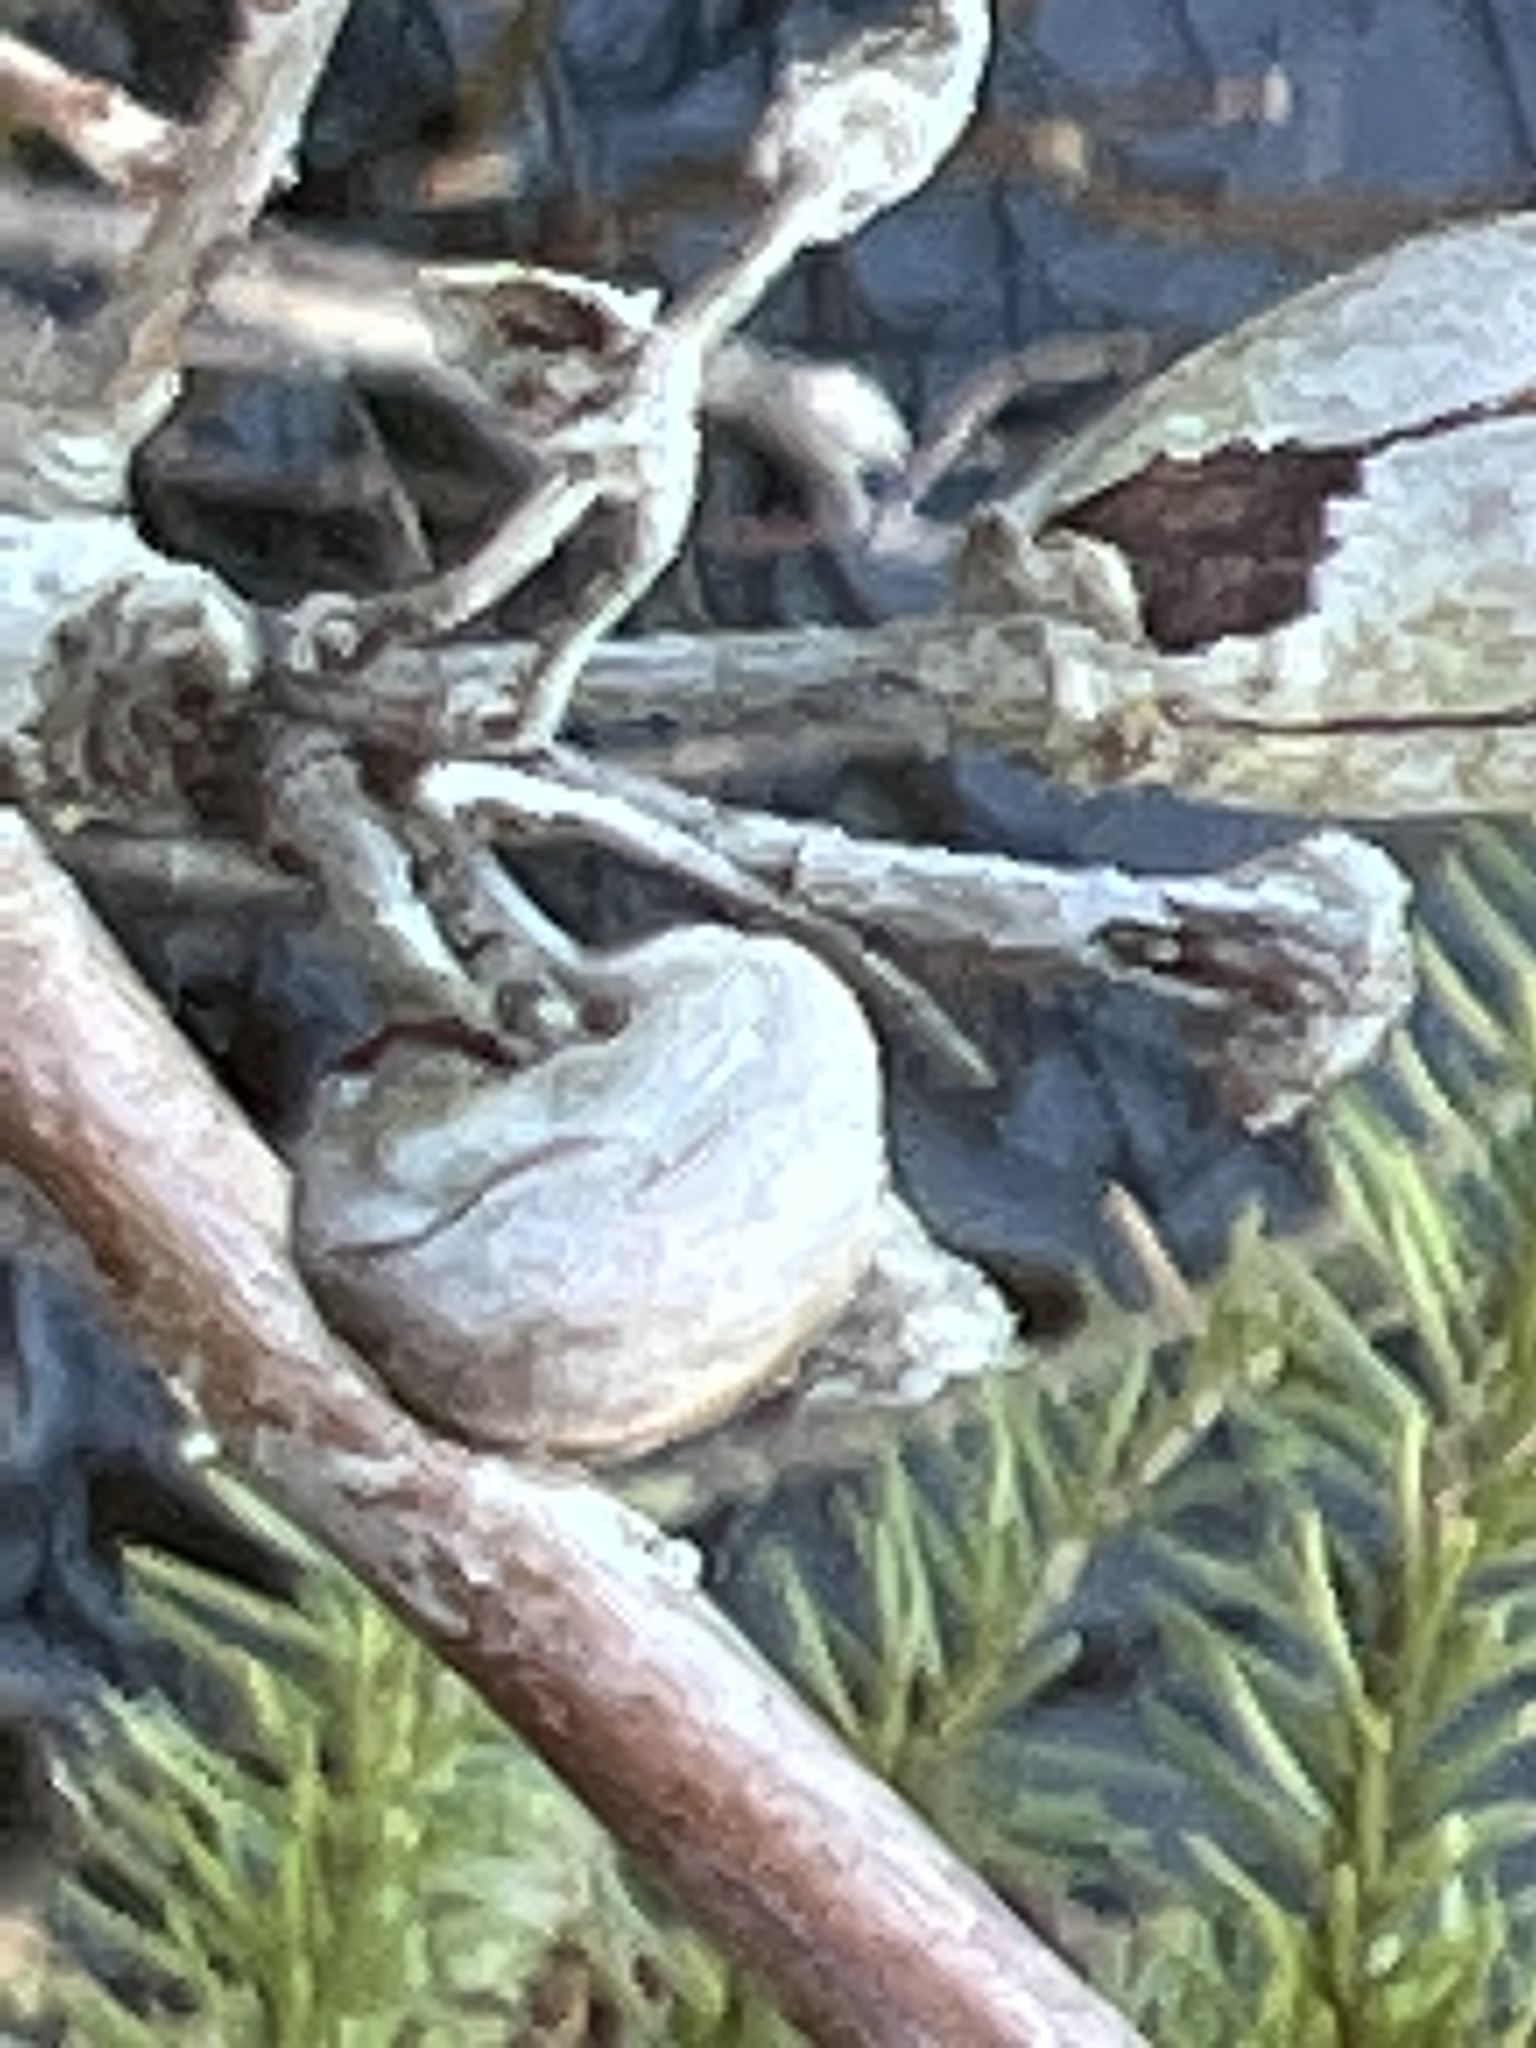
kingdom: Plantae
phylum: Tracheophyta
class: Magnoliopsida
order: Sapindales
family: Sapindaceae
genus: Acer
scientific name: Acer rubrum
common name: Red maple
